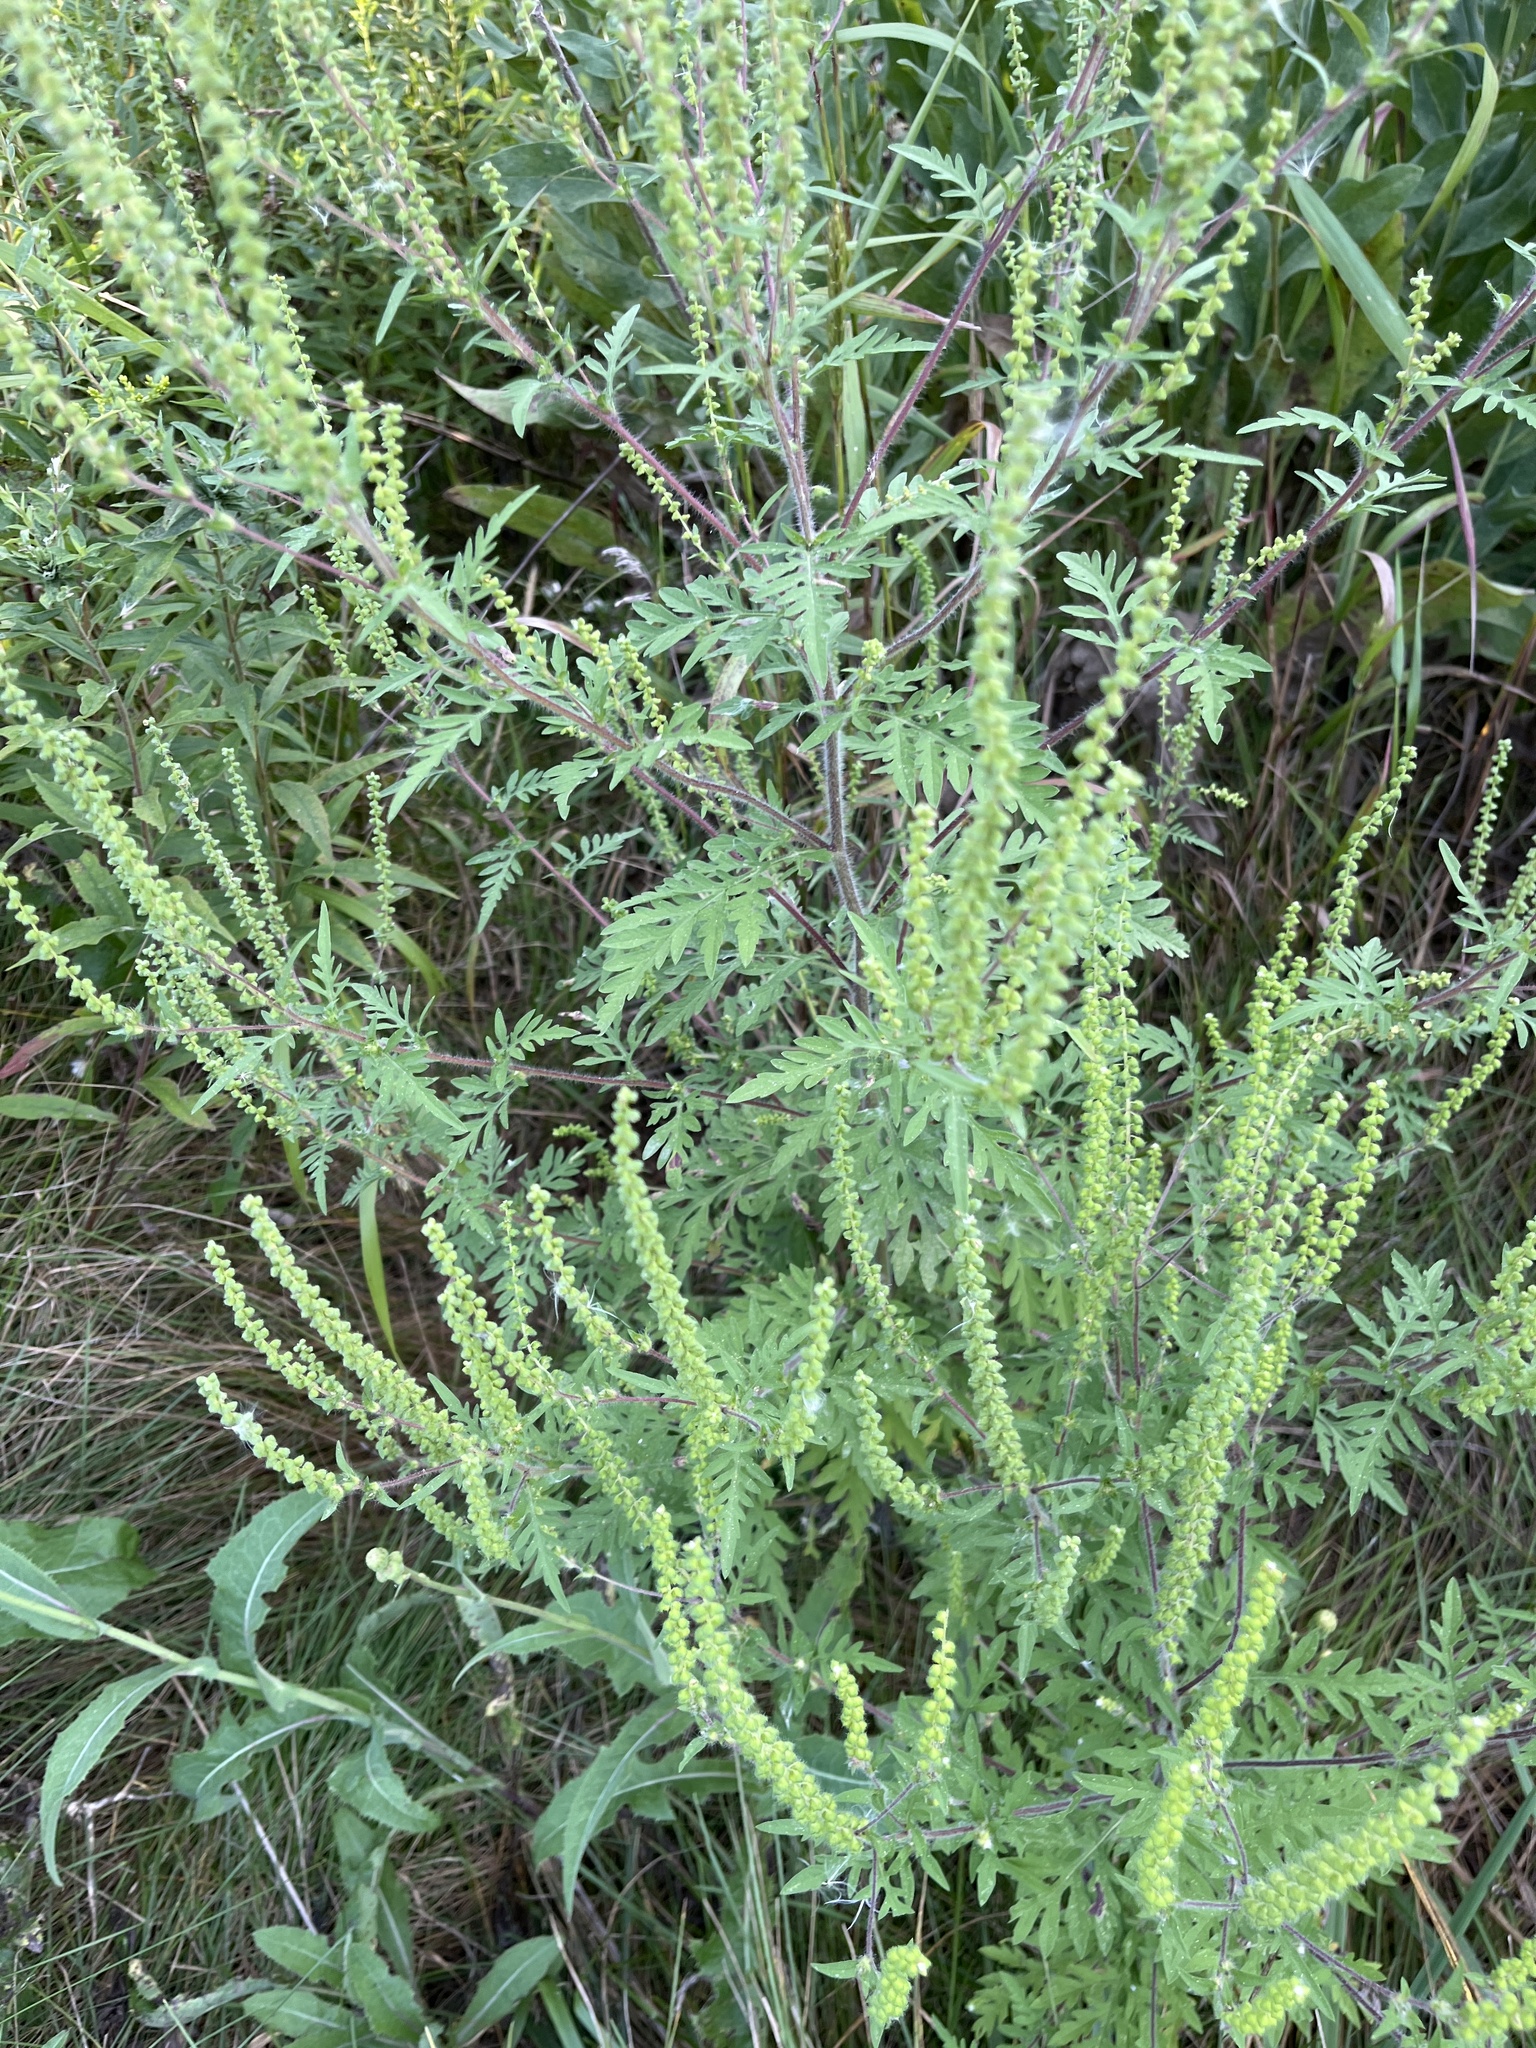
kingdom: Plantae
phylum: Tracheophyta
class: Magnoliopsida
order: Asterales
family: Asteraceae
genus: Ambrosia
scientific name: Ambrosia artemisiifolia
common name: Annual ragweed
